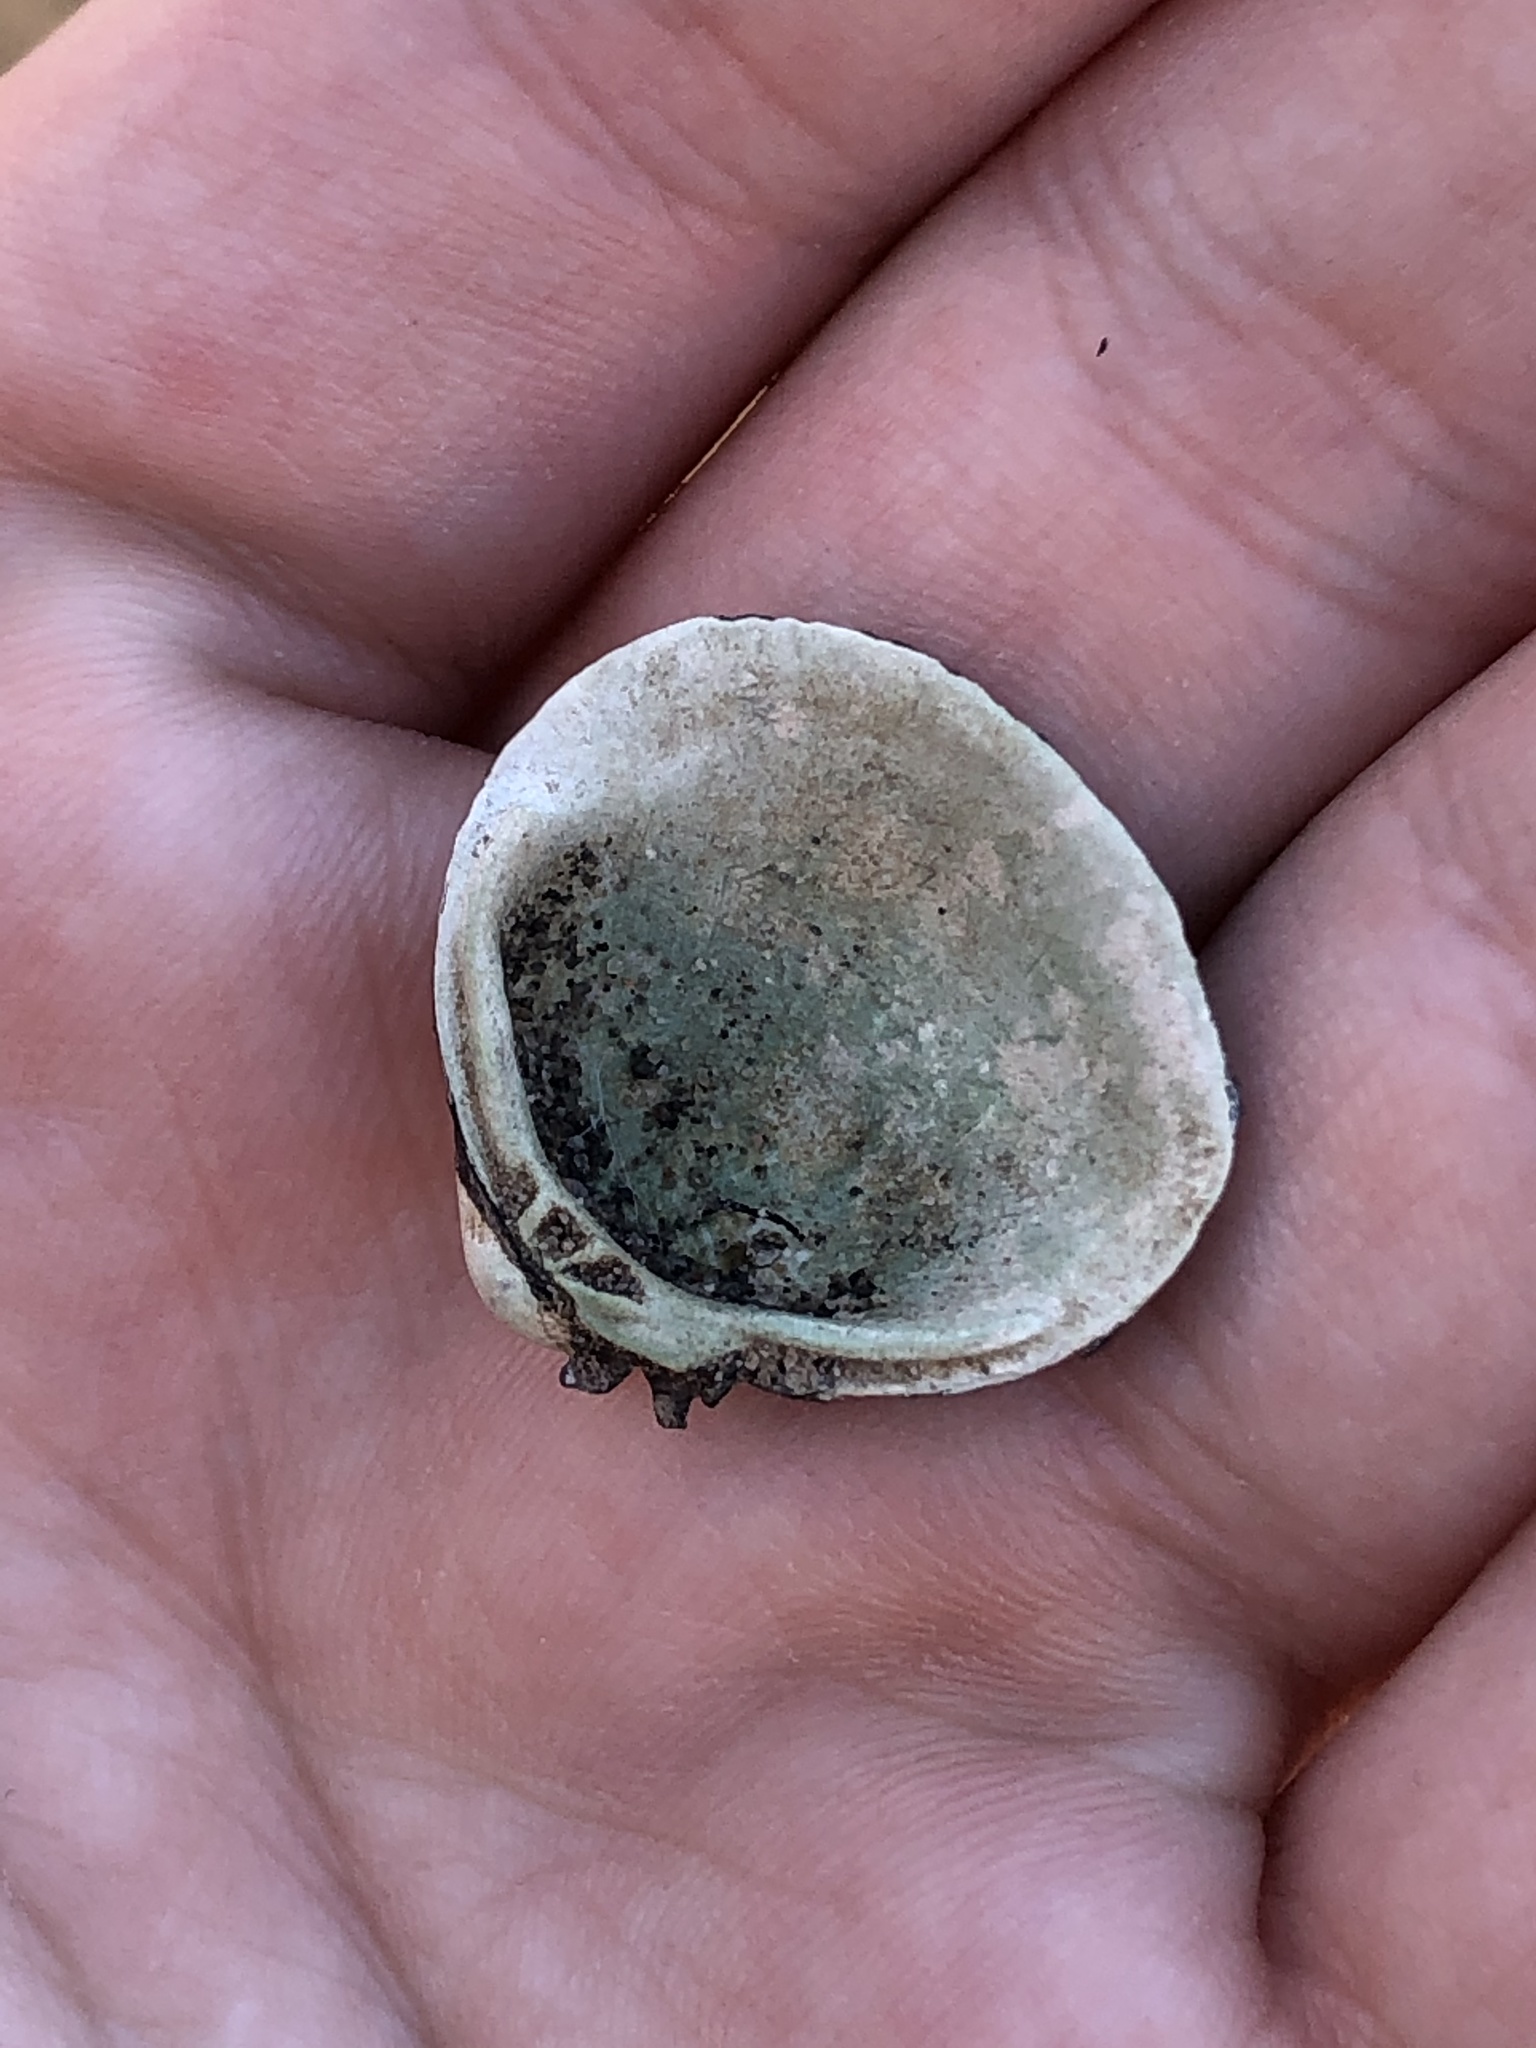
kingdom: Animalia
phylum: Mollusca
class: Bivalvia
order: Venerida
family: Cyrenidae
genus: Corbicula
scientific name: Corbicula fluminea
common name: Asian clam
